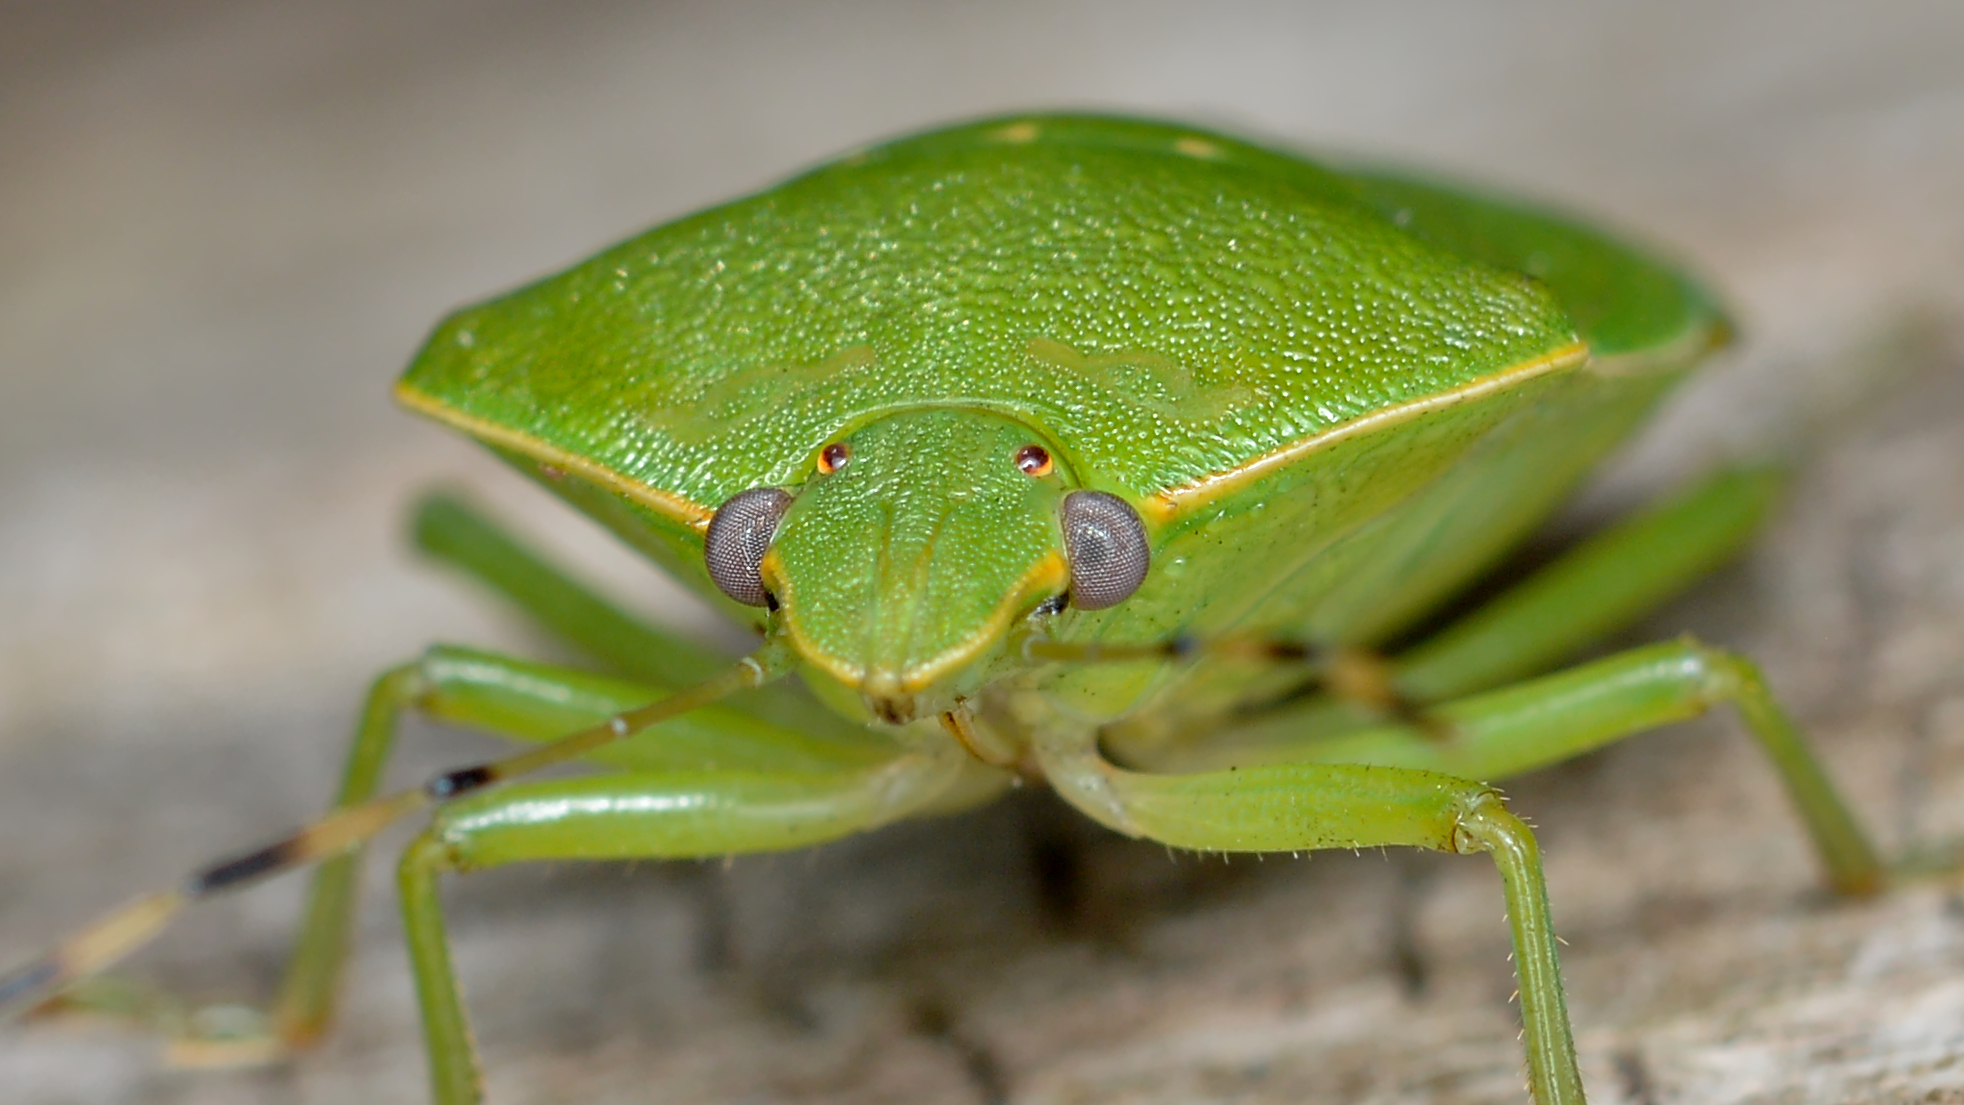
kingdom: Animalia
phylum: Arthropoda
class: Insecta
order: Hemiptera
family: Pentatomidae
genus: Chinavia
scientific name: Chinavia hilaris
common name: Green stink bug
